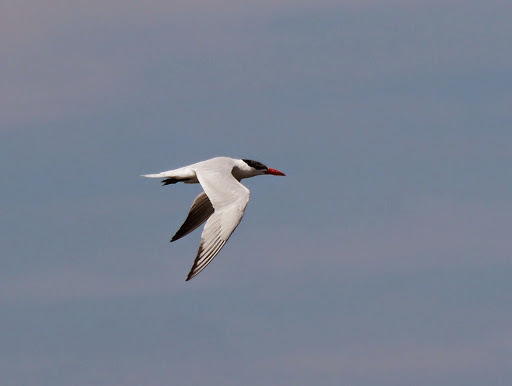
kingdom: Animalia
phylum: Chordata
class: Aves
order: Charadriiformes
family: Laridae
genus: Hydroprogne
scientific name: Hydroprogne caspia
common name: Caspian tern
